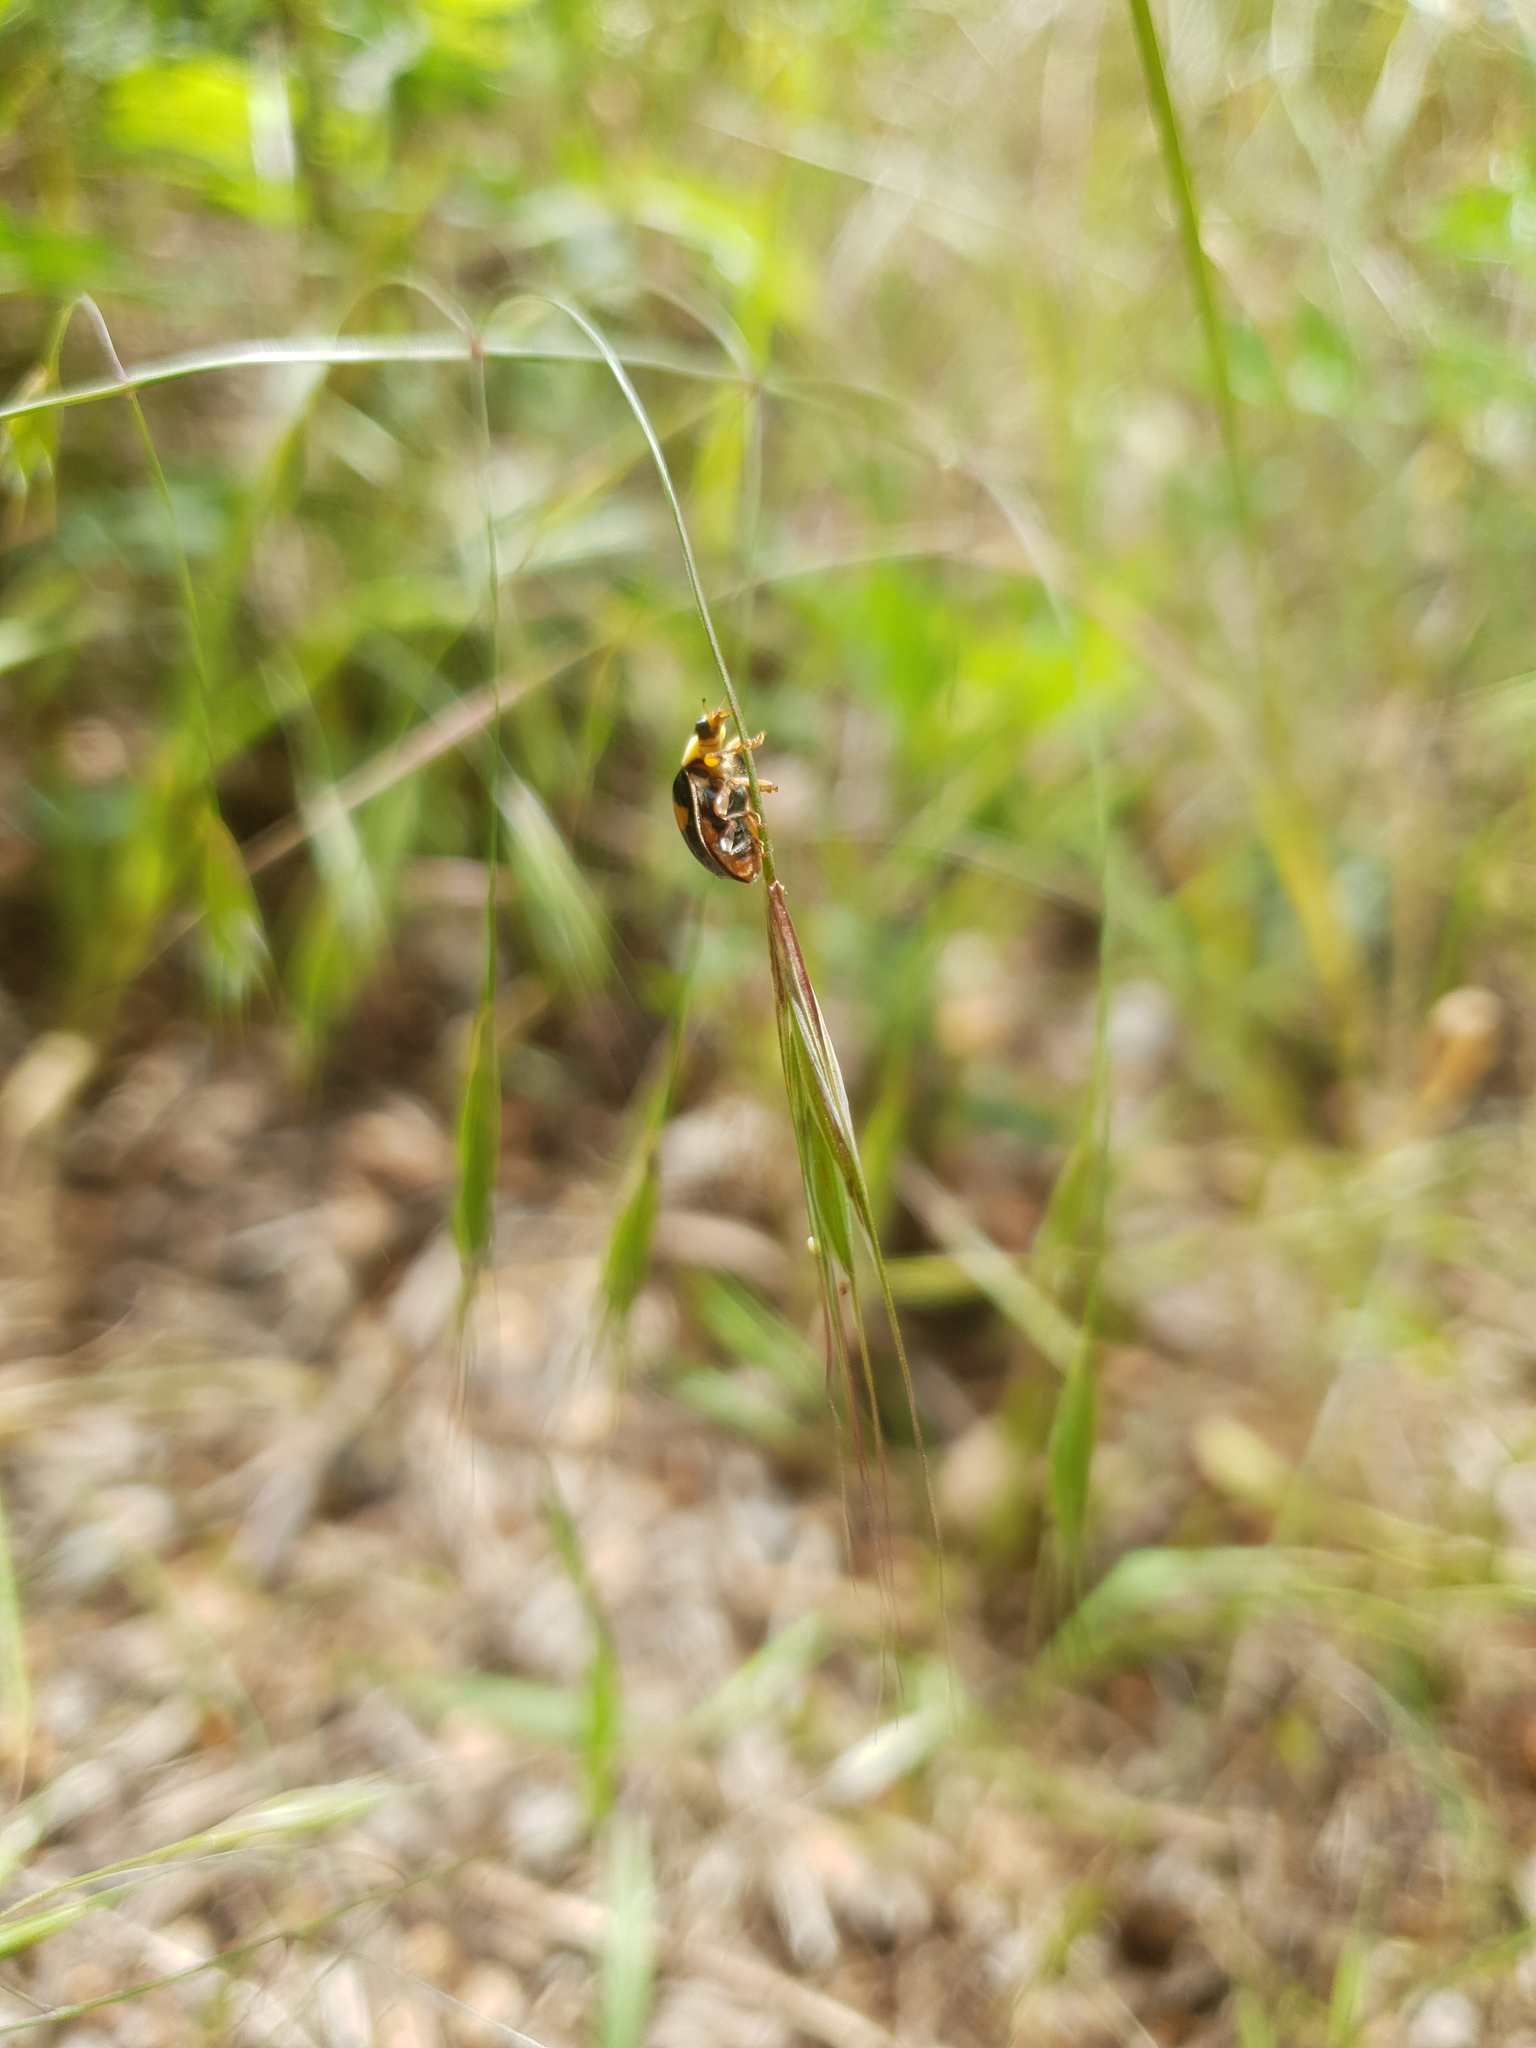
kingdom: Animalia
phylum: Arthropoda
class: Insecta
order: Coleoptera
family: Coccinellidae
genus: Harmonia
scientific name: Harmonia axyridis
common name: Harlequin ladybird
